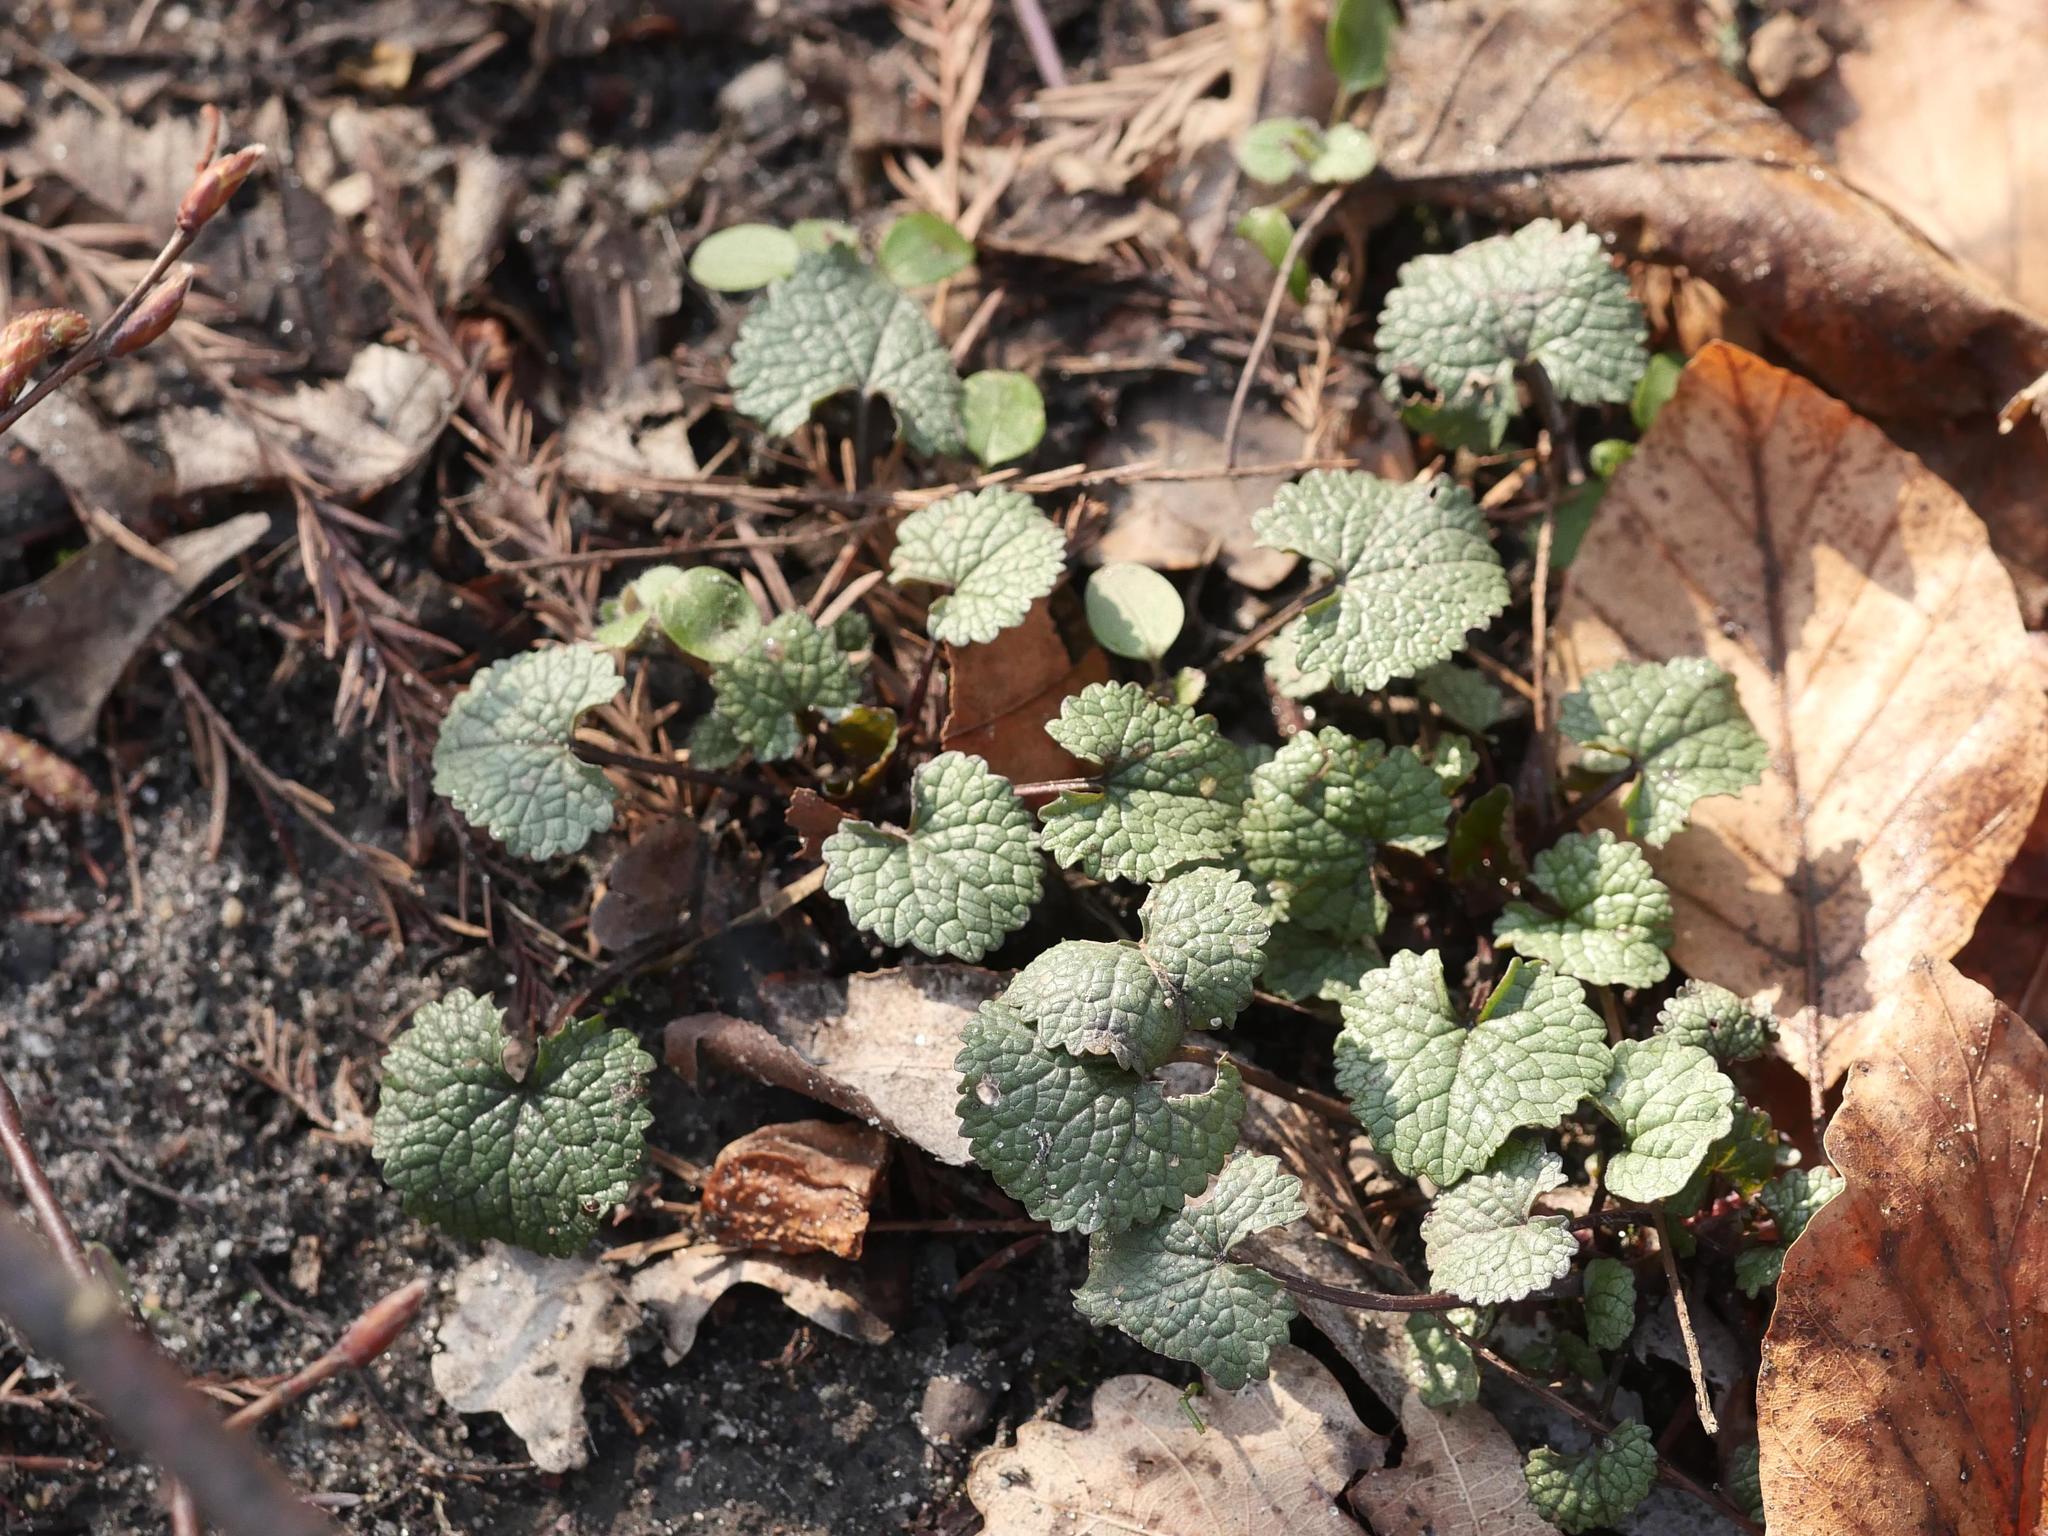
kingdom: Plantae
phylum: Tracheophyta
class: Magnoliopsida
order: Brassicales
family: Brassicaceae
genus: Alliaria
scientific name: Alliaria petiolata
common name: Garlic mustard
